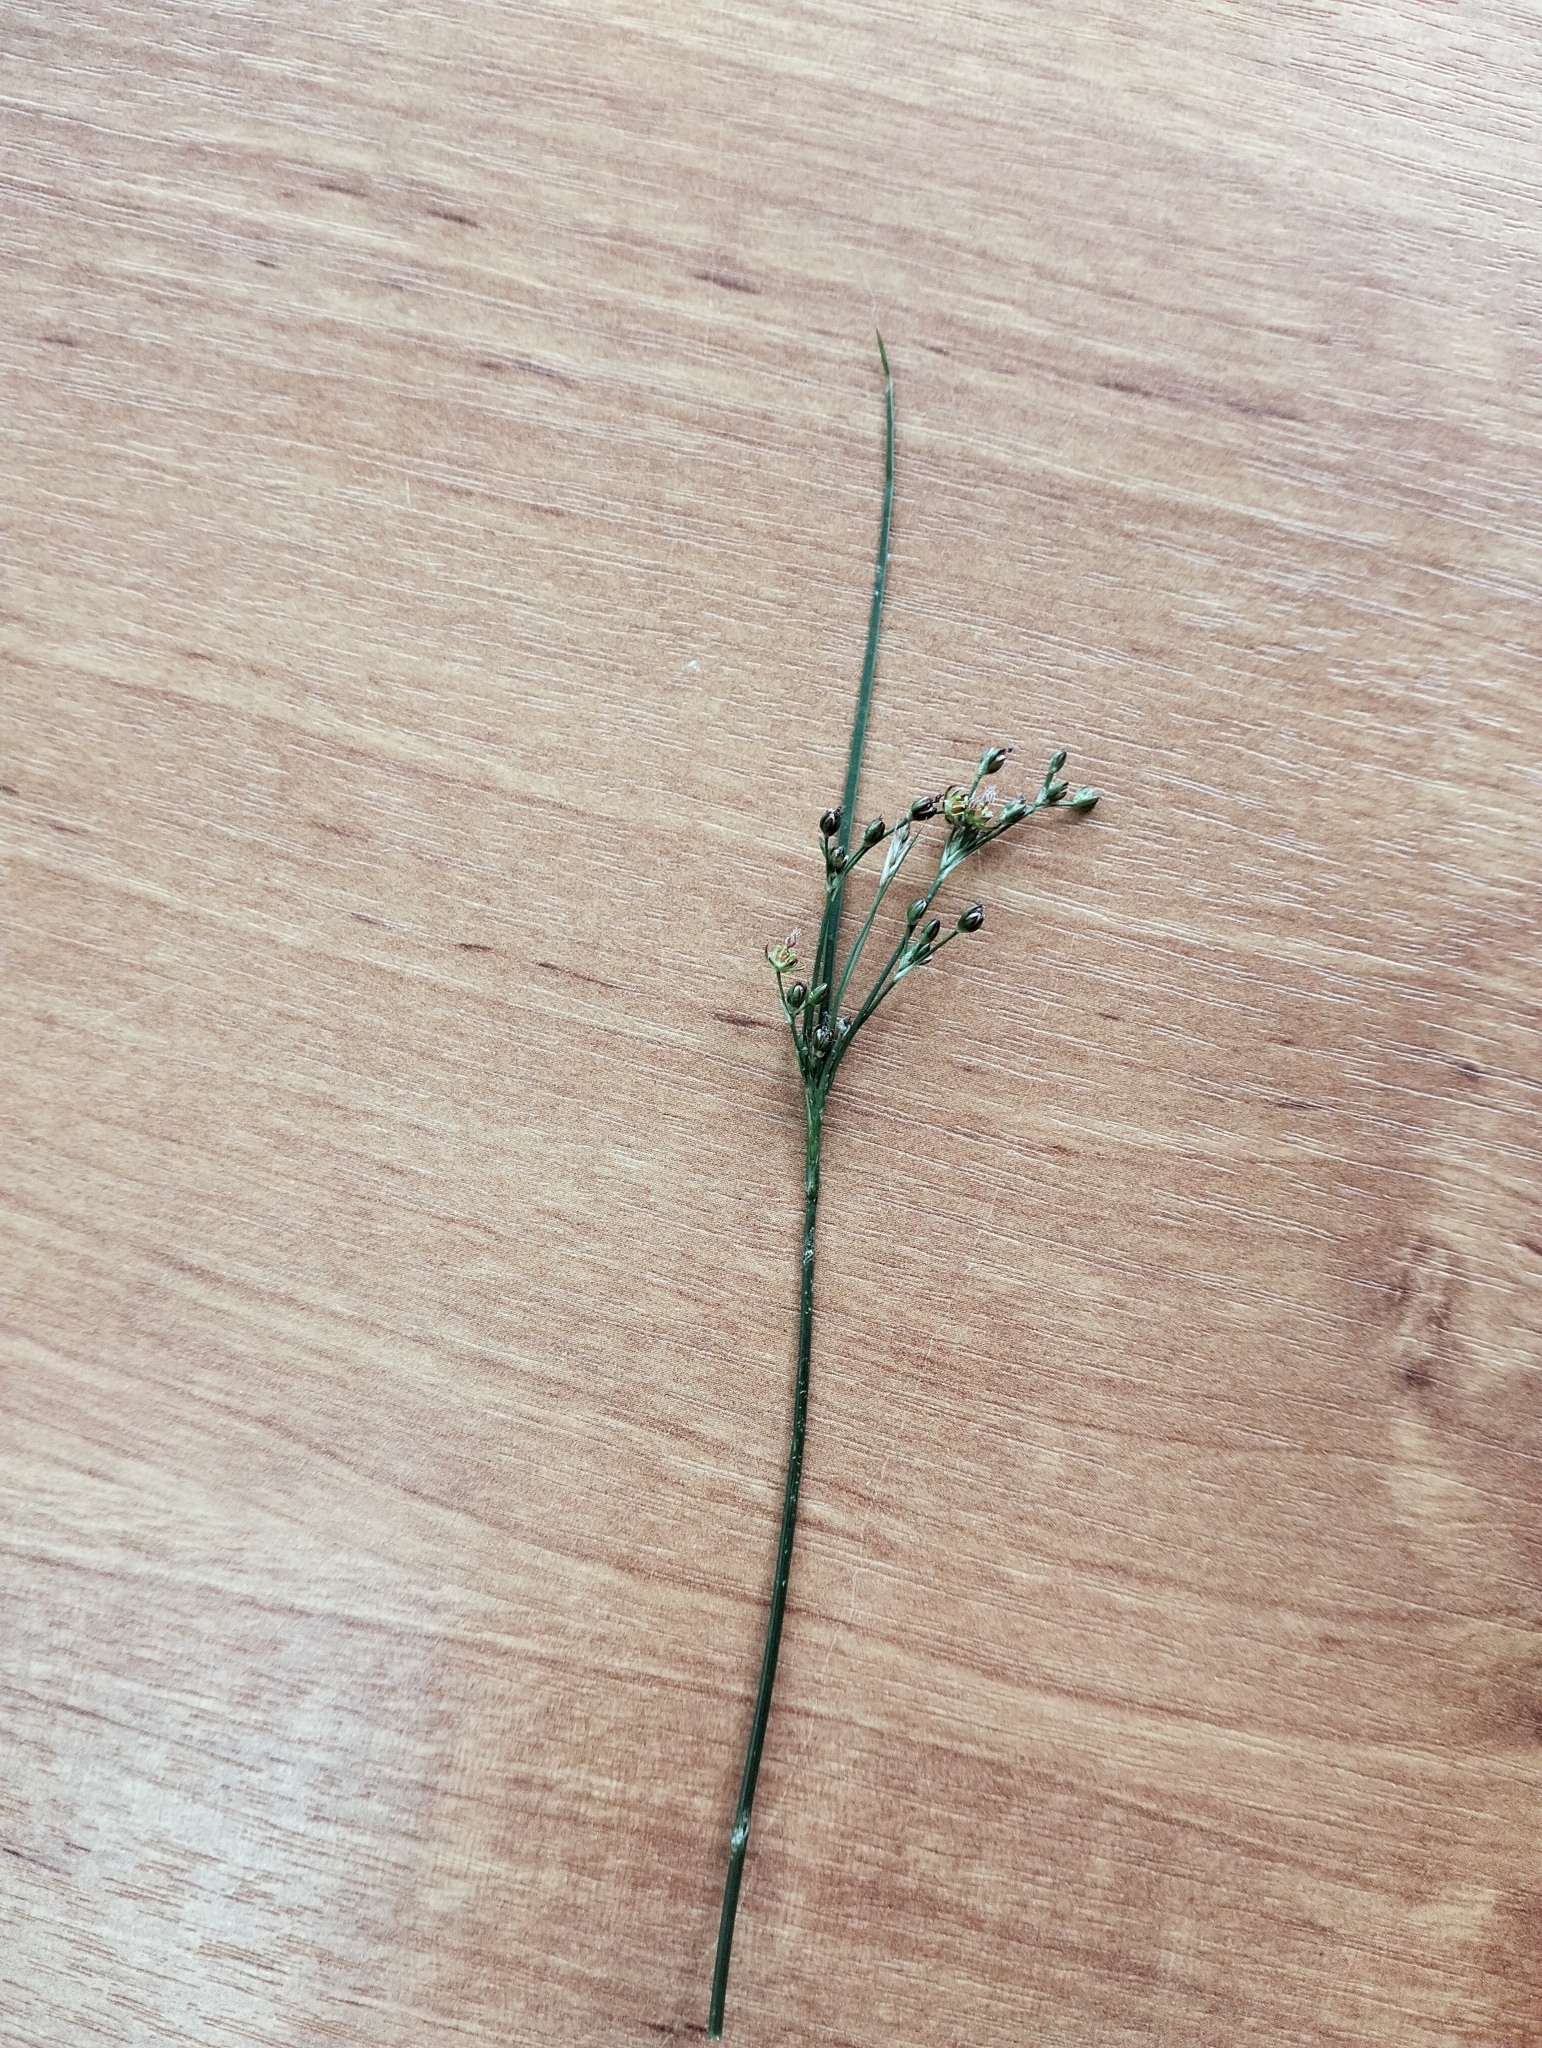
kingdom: Plantae
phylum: Tracheophyta
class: Liliopsida
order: Poales
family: Juncaceae
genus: Juncus
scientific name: Juncus compressus
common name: Round-fruited rush
